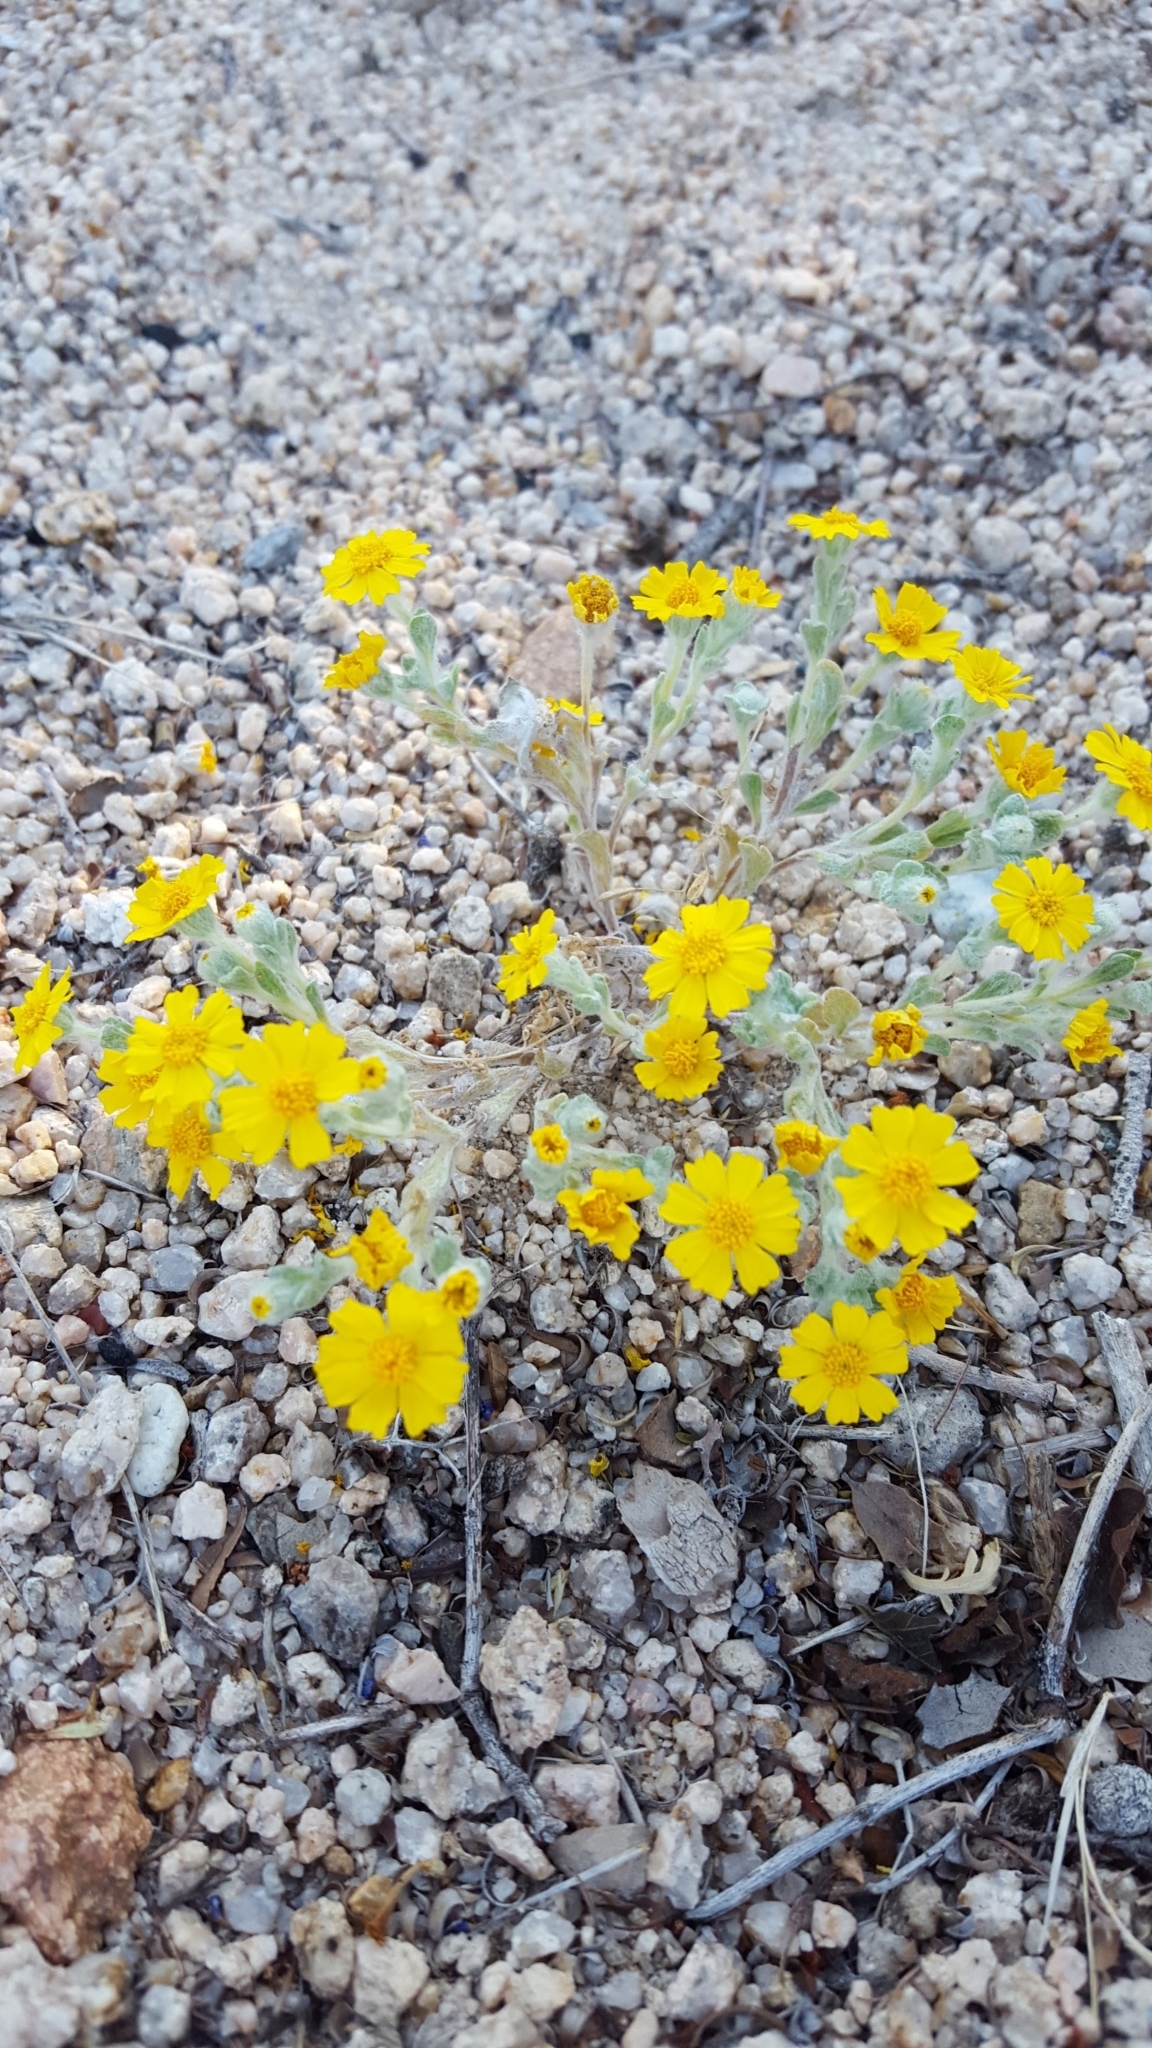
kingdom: Plantae
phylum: Tracheophyta
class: Magnoliopsida
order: Asterales
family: Asteraceae
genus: Eriophyllum
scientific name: Eriophyllum wallacei
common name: Wallace's woolly daisy
